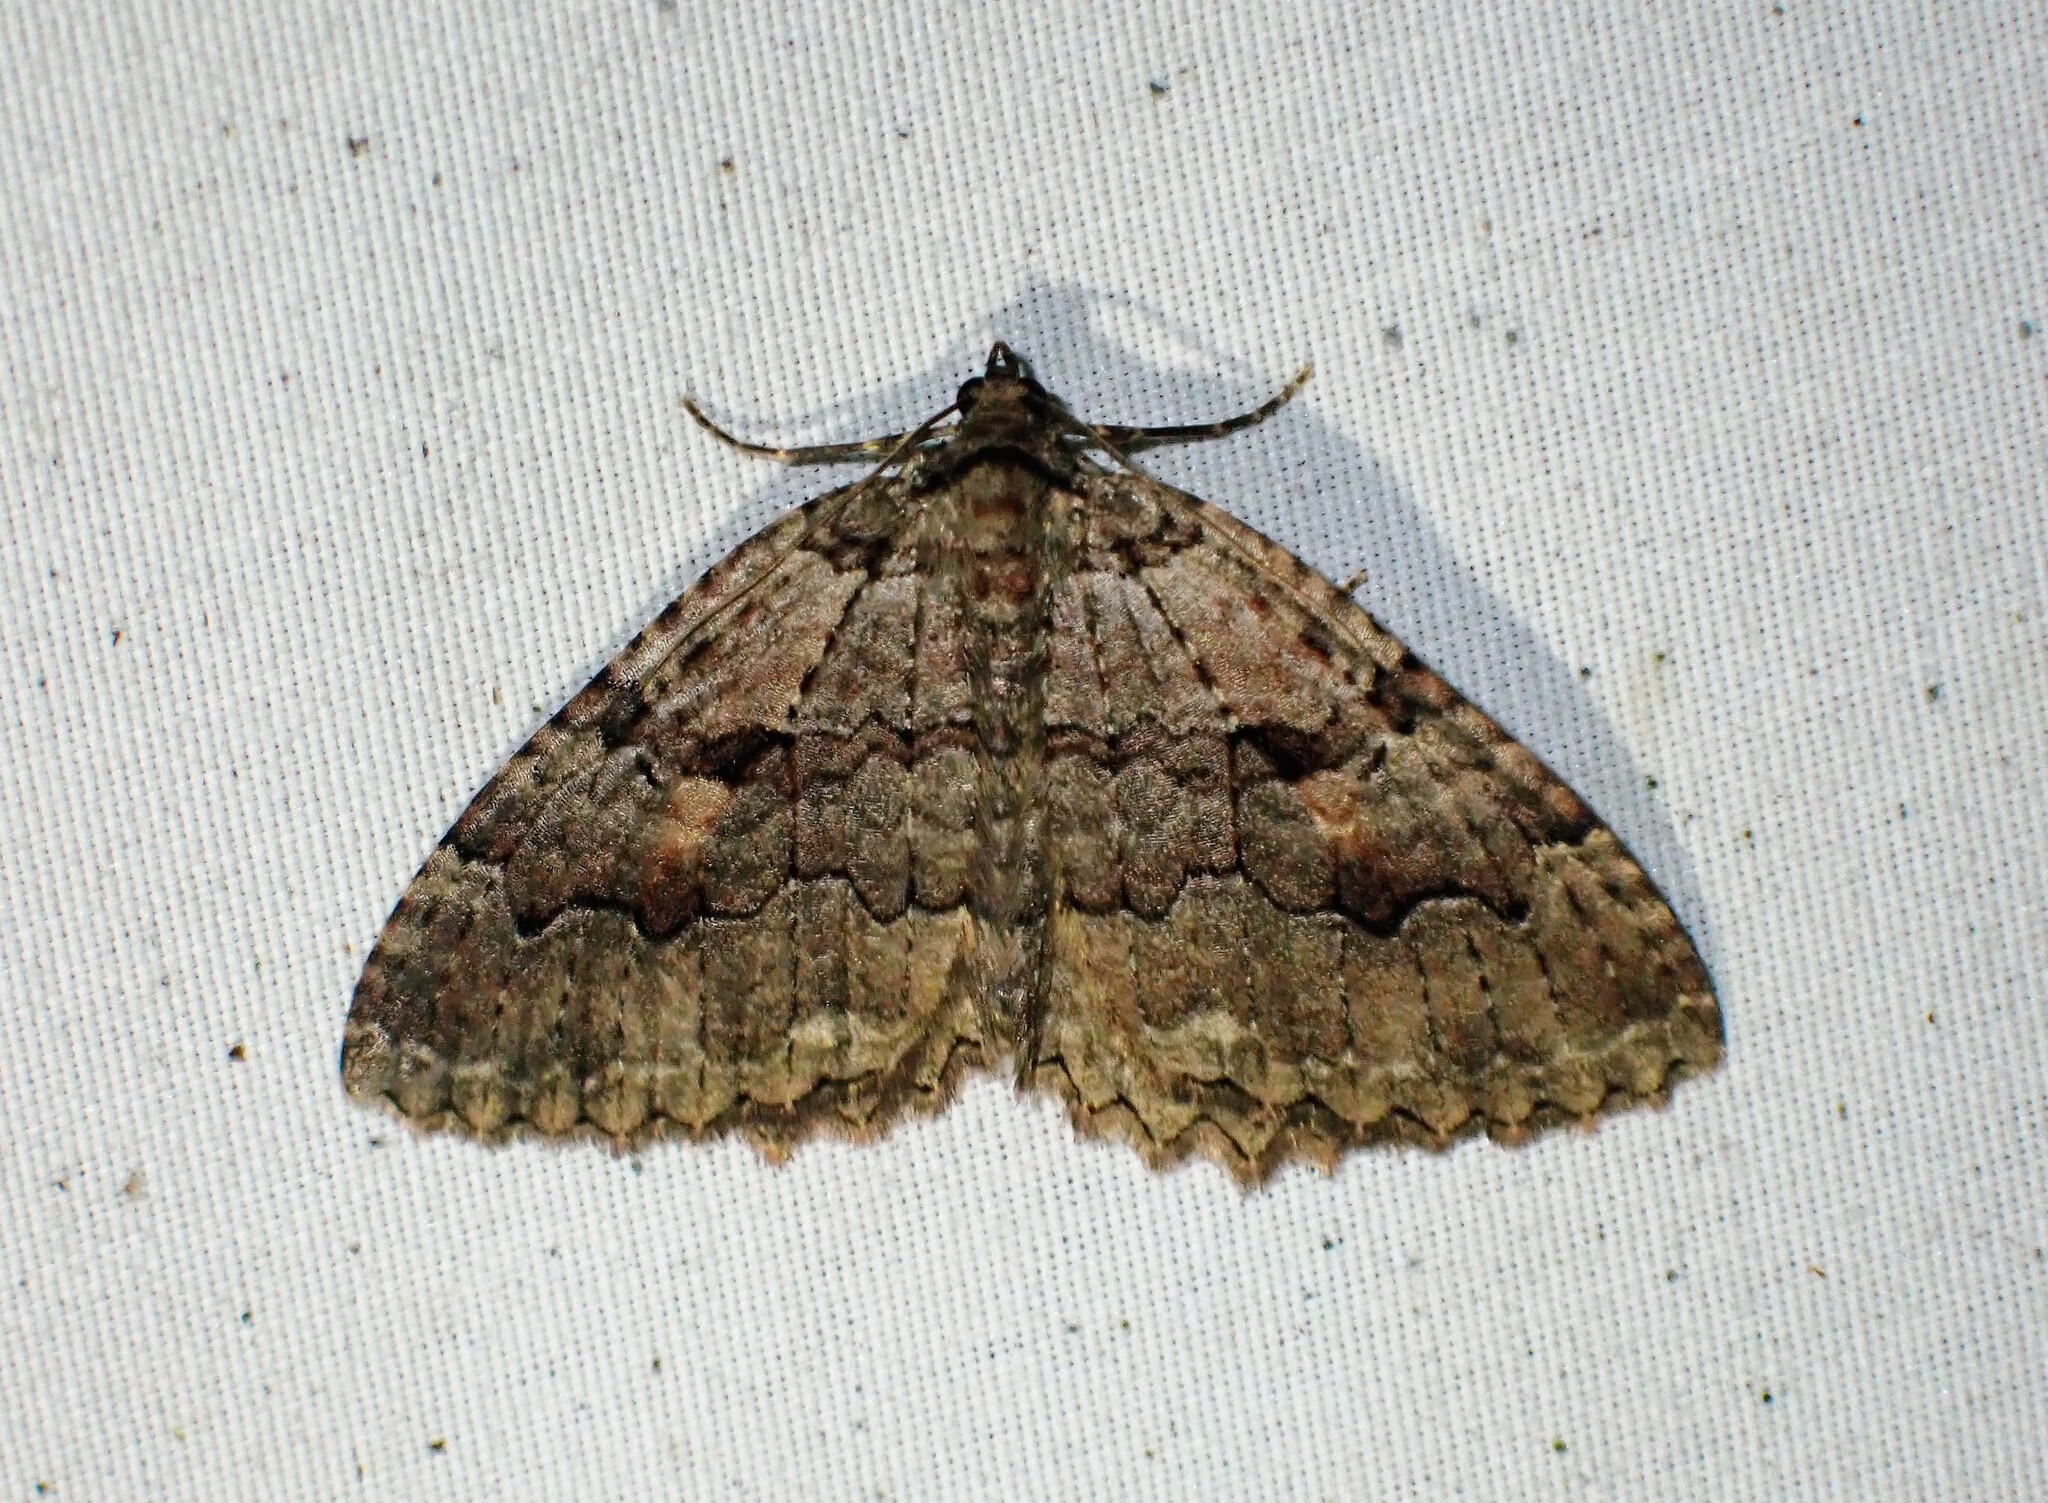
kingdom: Animalia
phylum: Arthropoda
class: Insecta
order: Lepidoptera
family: Geometridae
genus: Triphosa
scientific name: Triphosa haesitata
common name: Tissue moth
